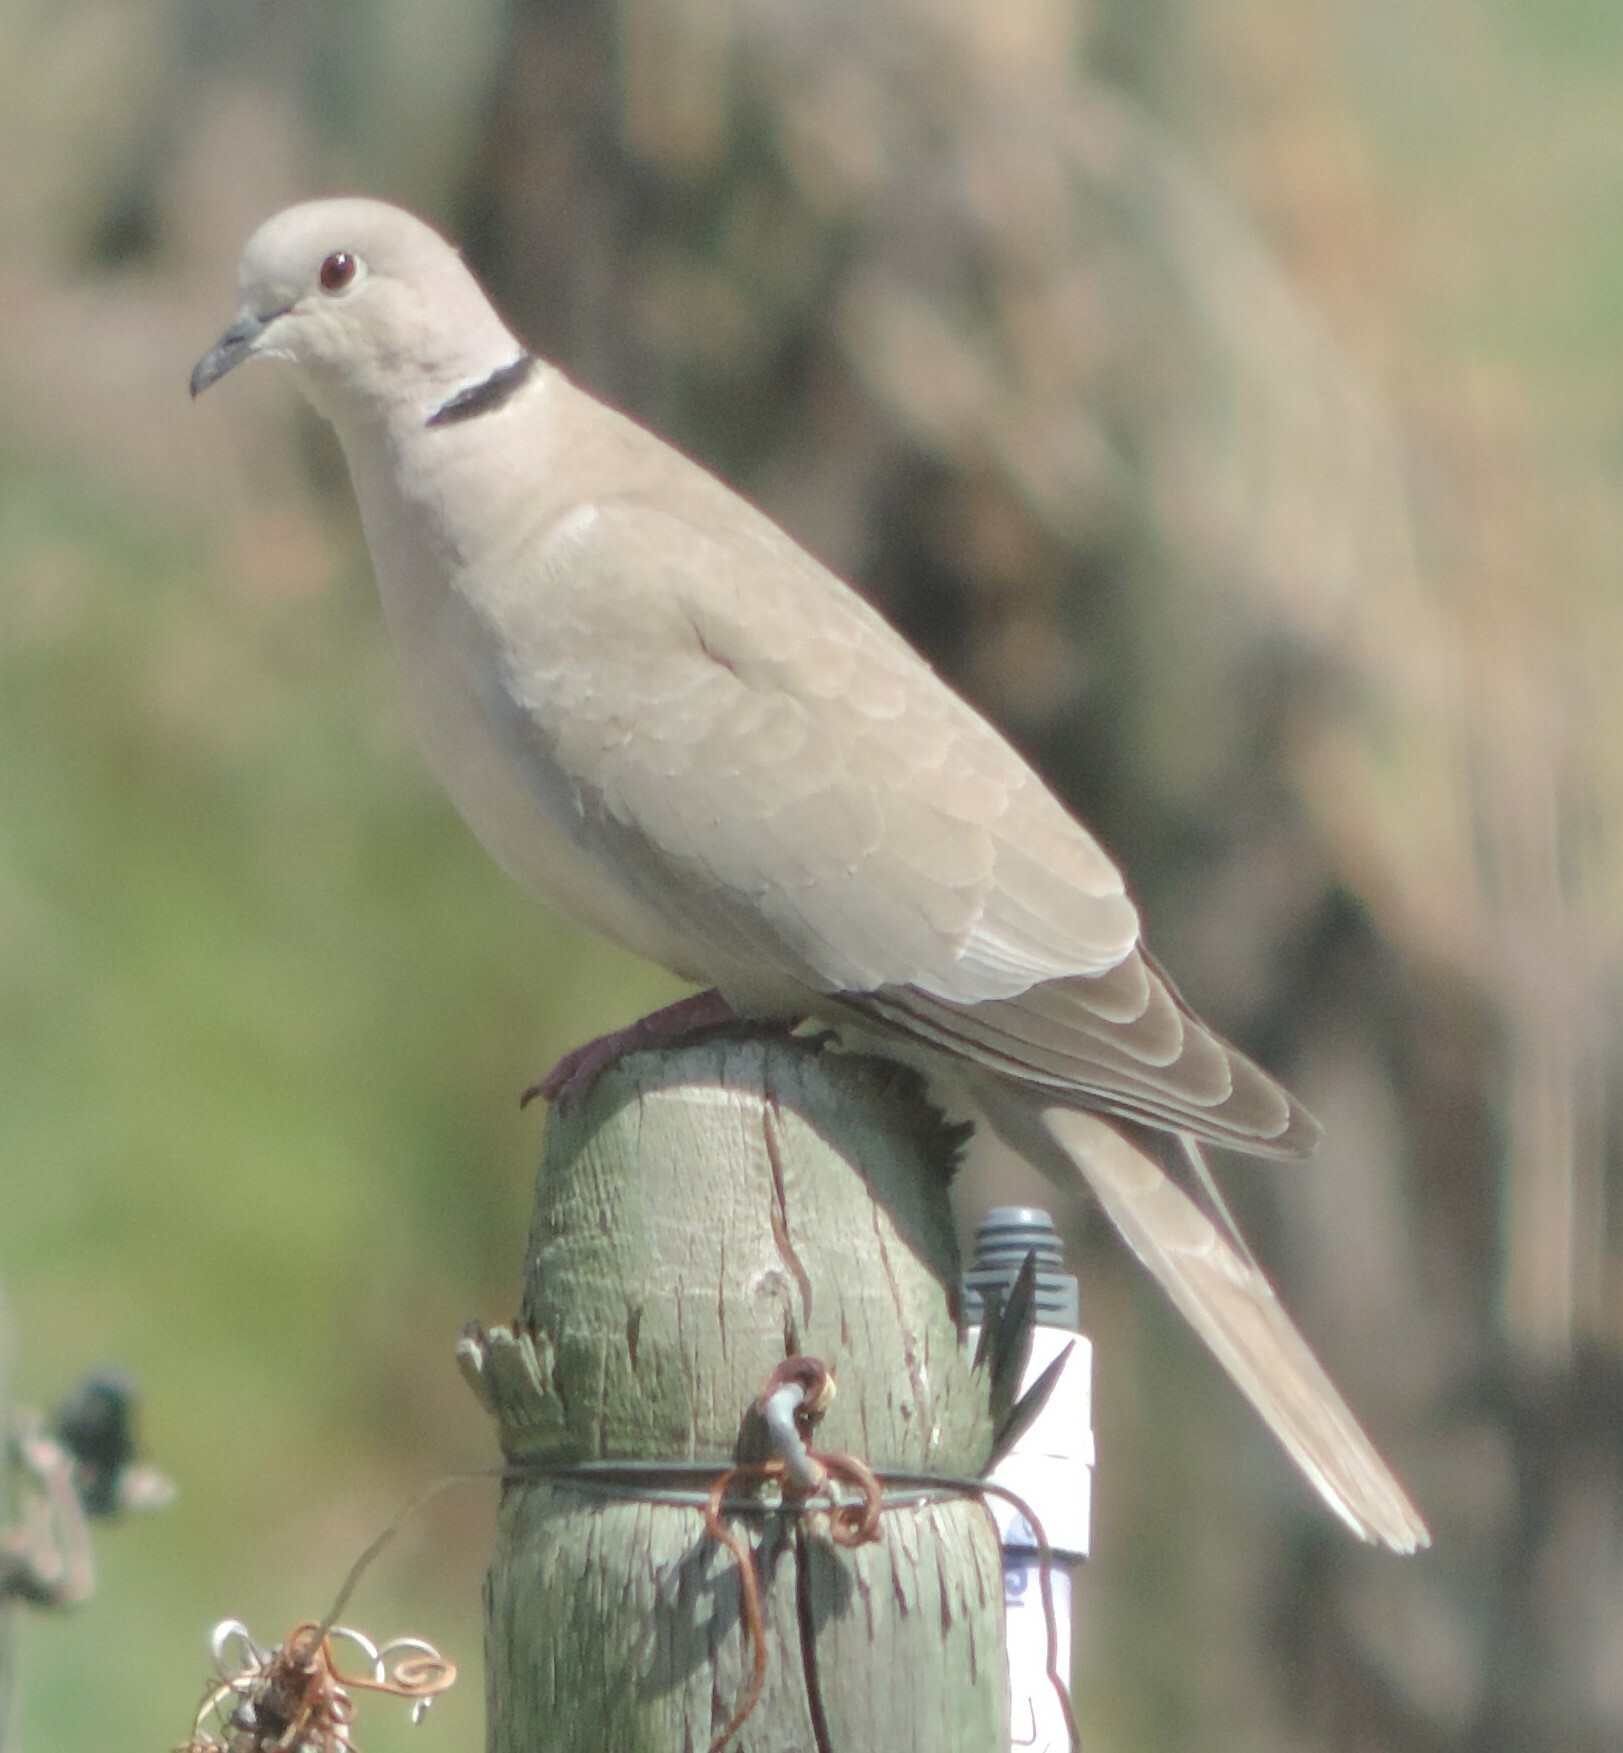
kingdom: Animalia
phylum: Chordata
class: Aves
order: Columbiformes
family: Columbidae
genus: Streptopelia
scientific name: Streptopelia decaocto
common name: Eurasian collared dove
